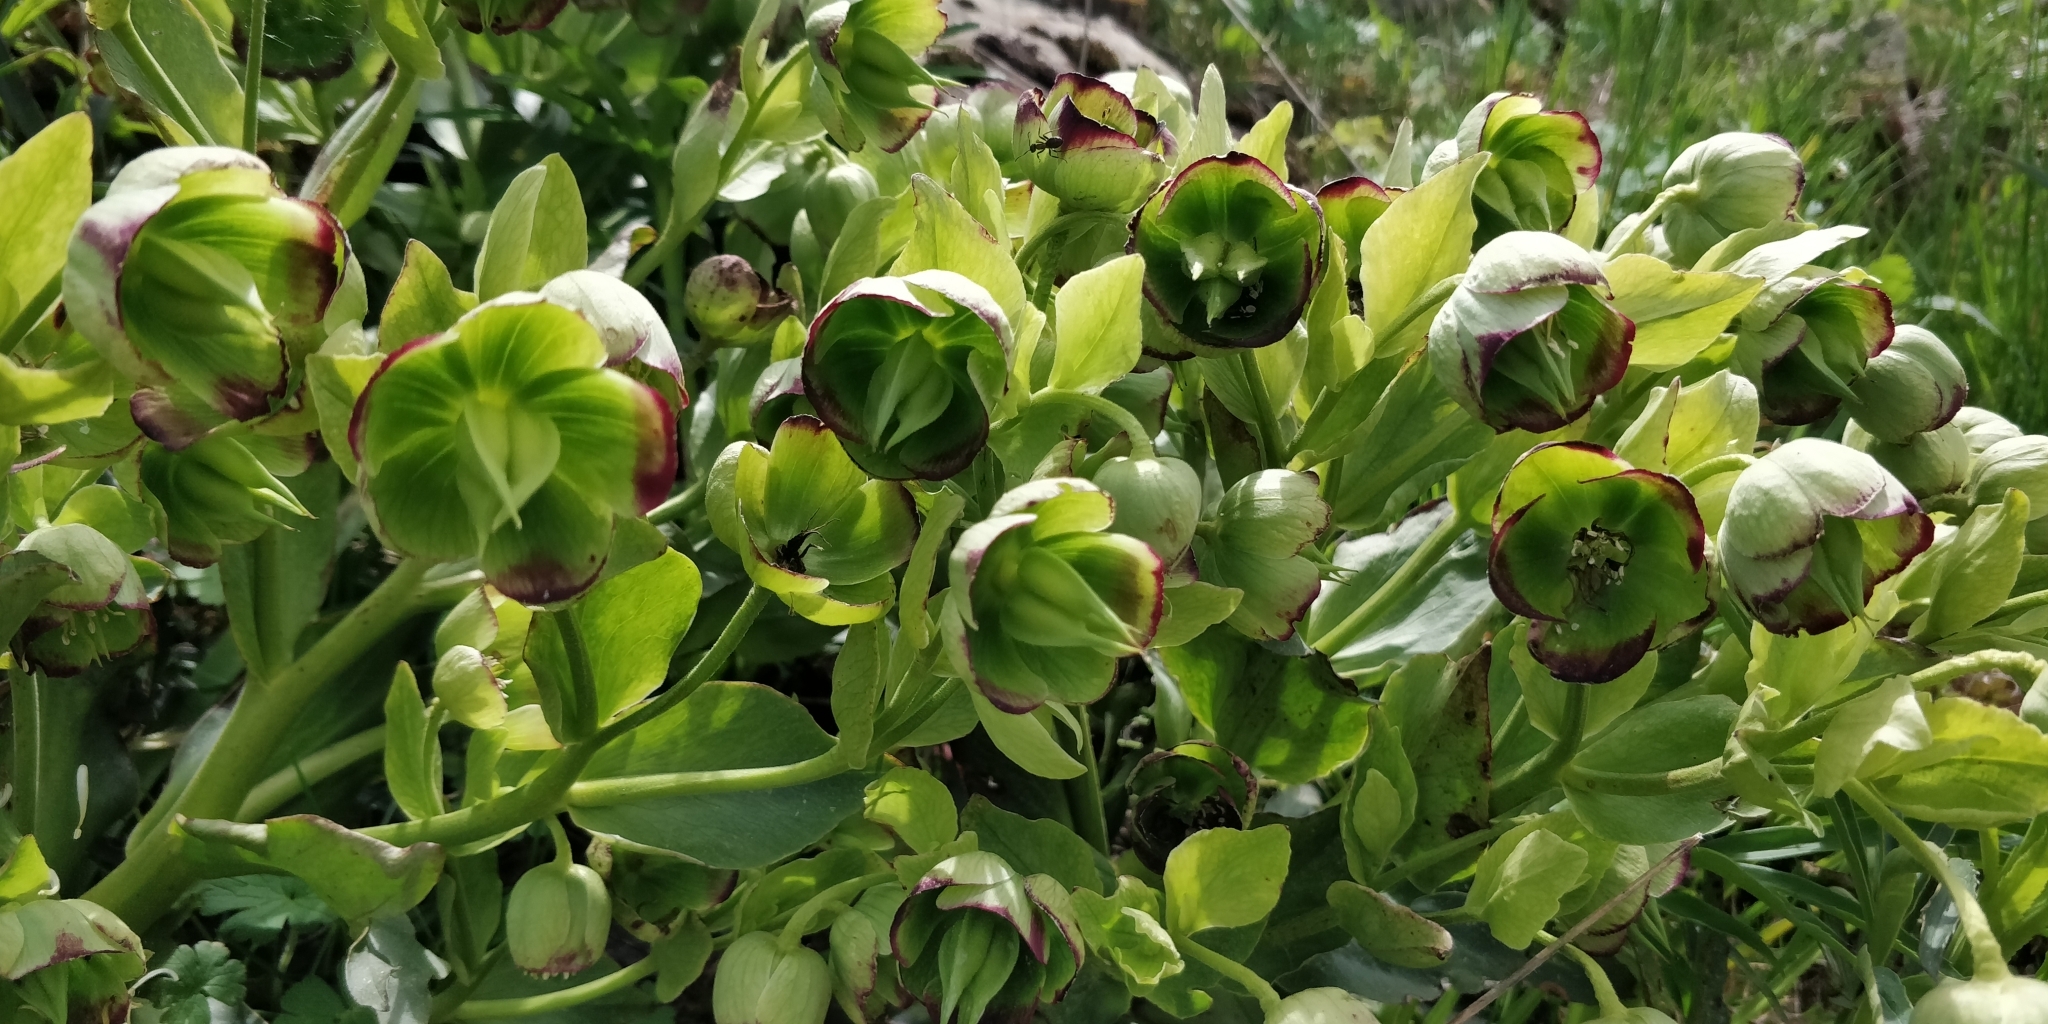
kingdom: Plantae
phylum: Tracheophyta
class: Magnoliopsida
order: Ranunculales
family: Ranunculaceae
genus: Helleborus
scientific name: Helleborus foetidus
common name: Stinking hellebore
